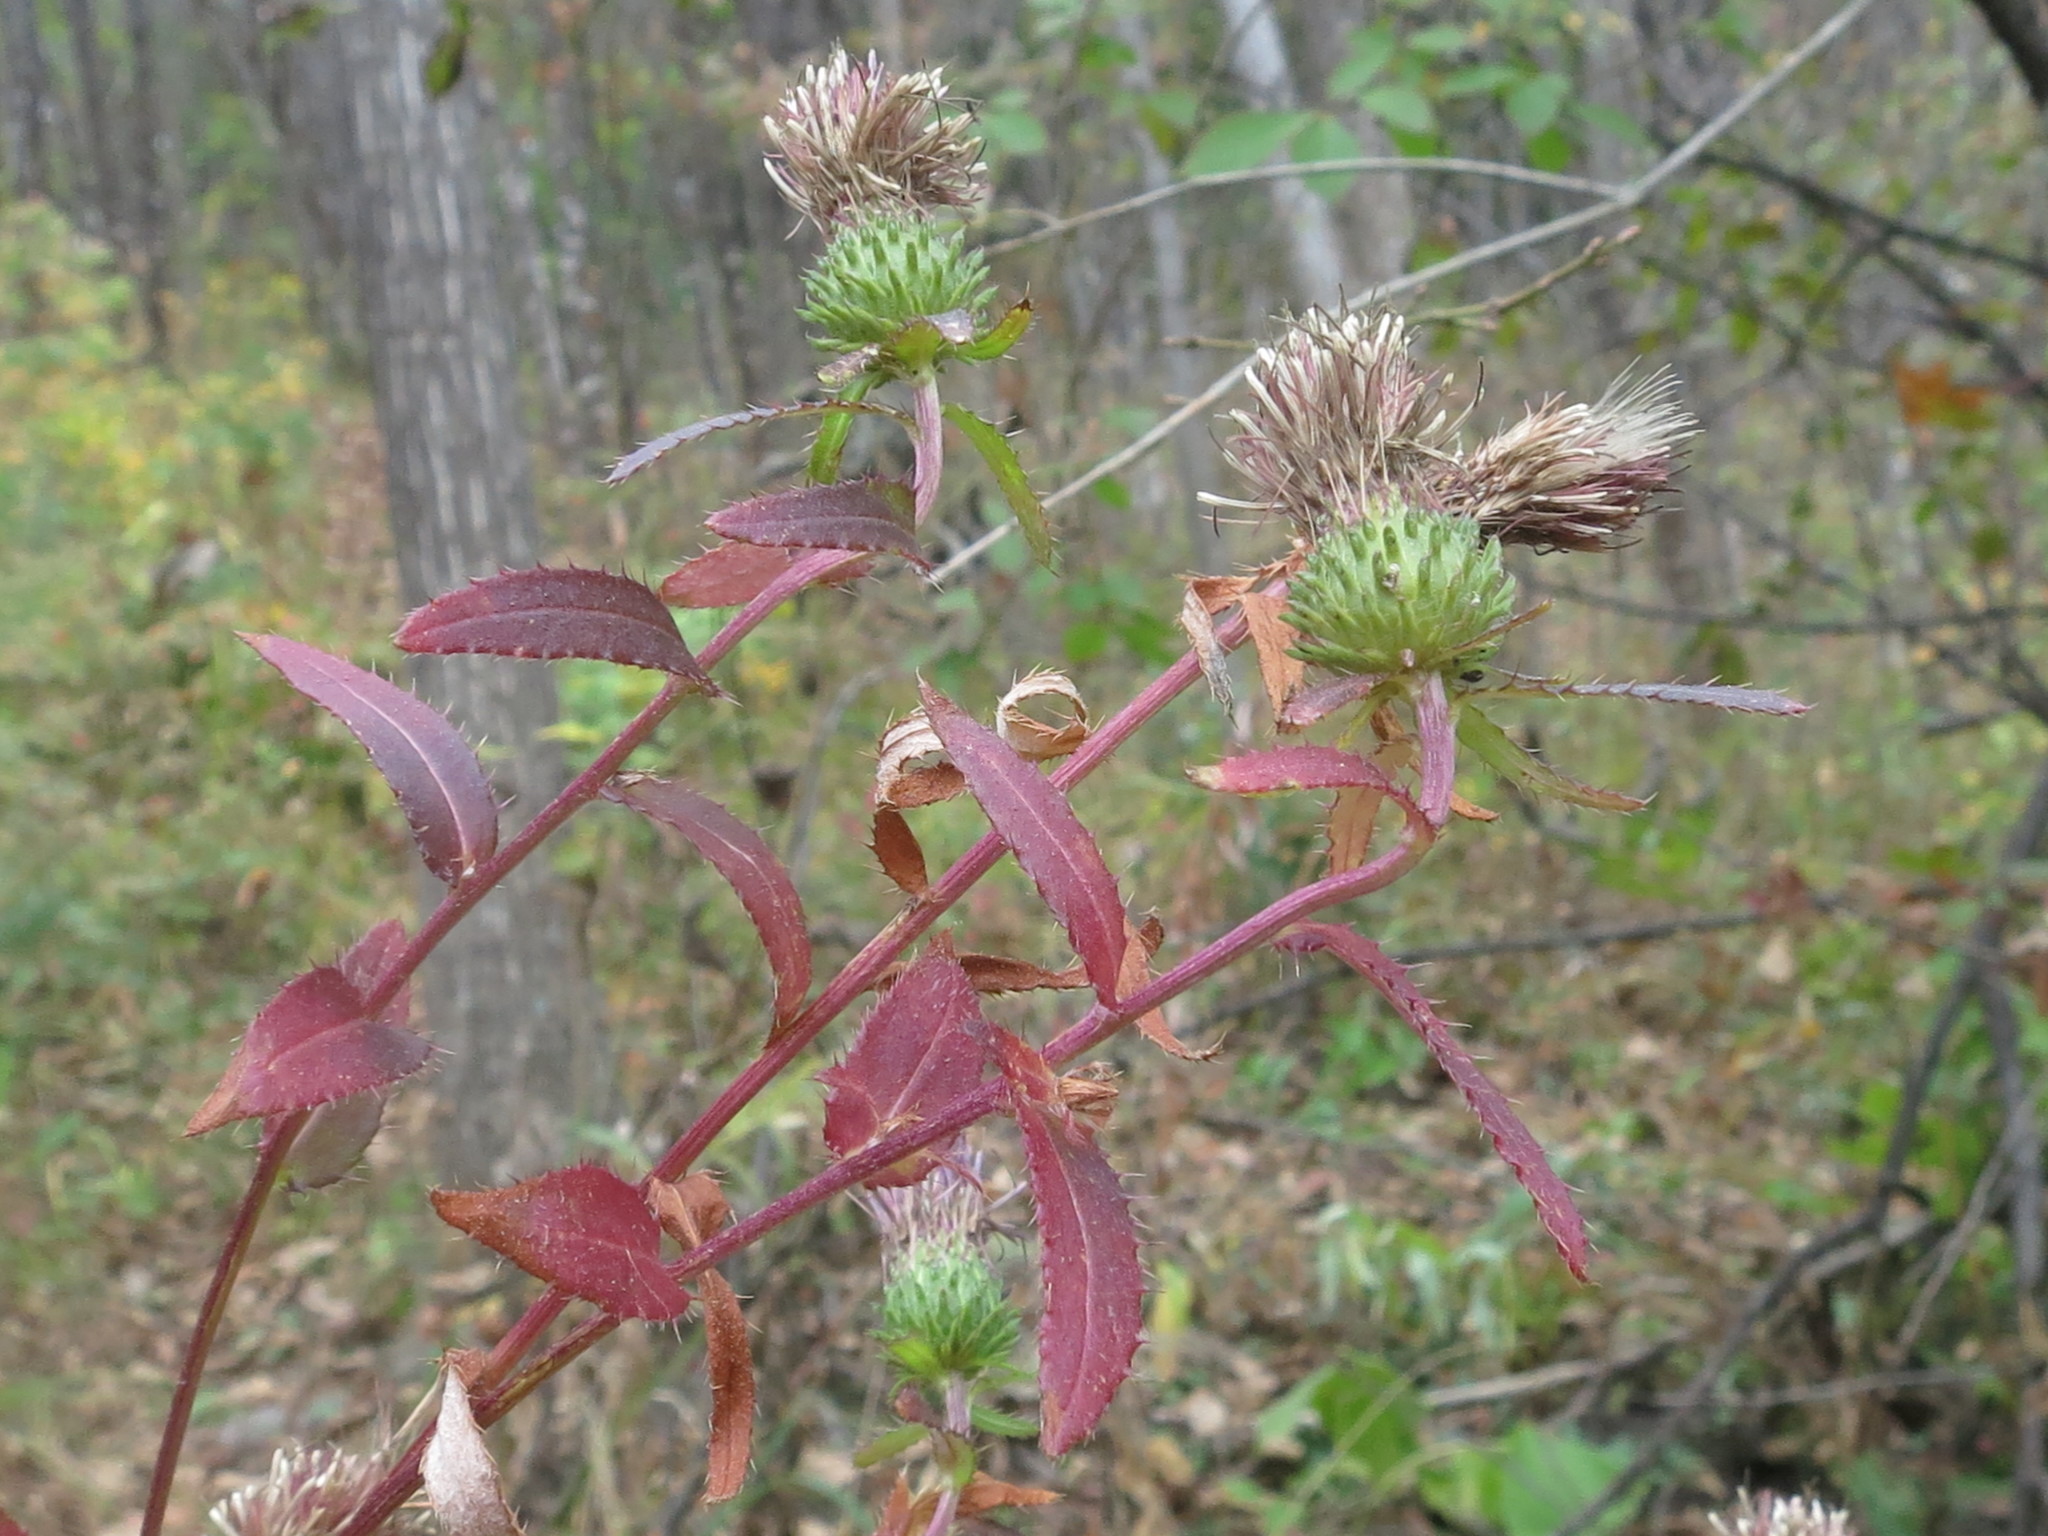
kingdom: Plantae
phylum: Tracheophyta
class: Magnoliopsida
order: Asterales
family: Asteraceae
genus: Cirsium
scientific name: Cirsium vlassovianum
